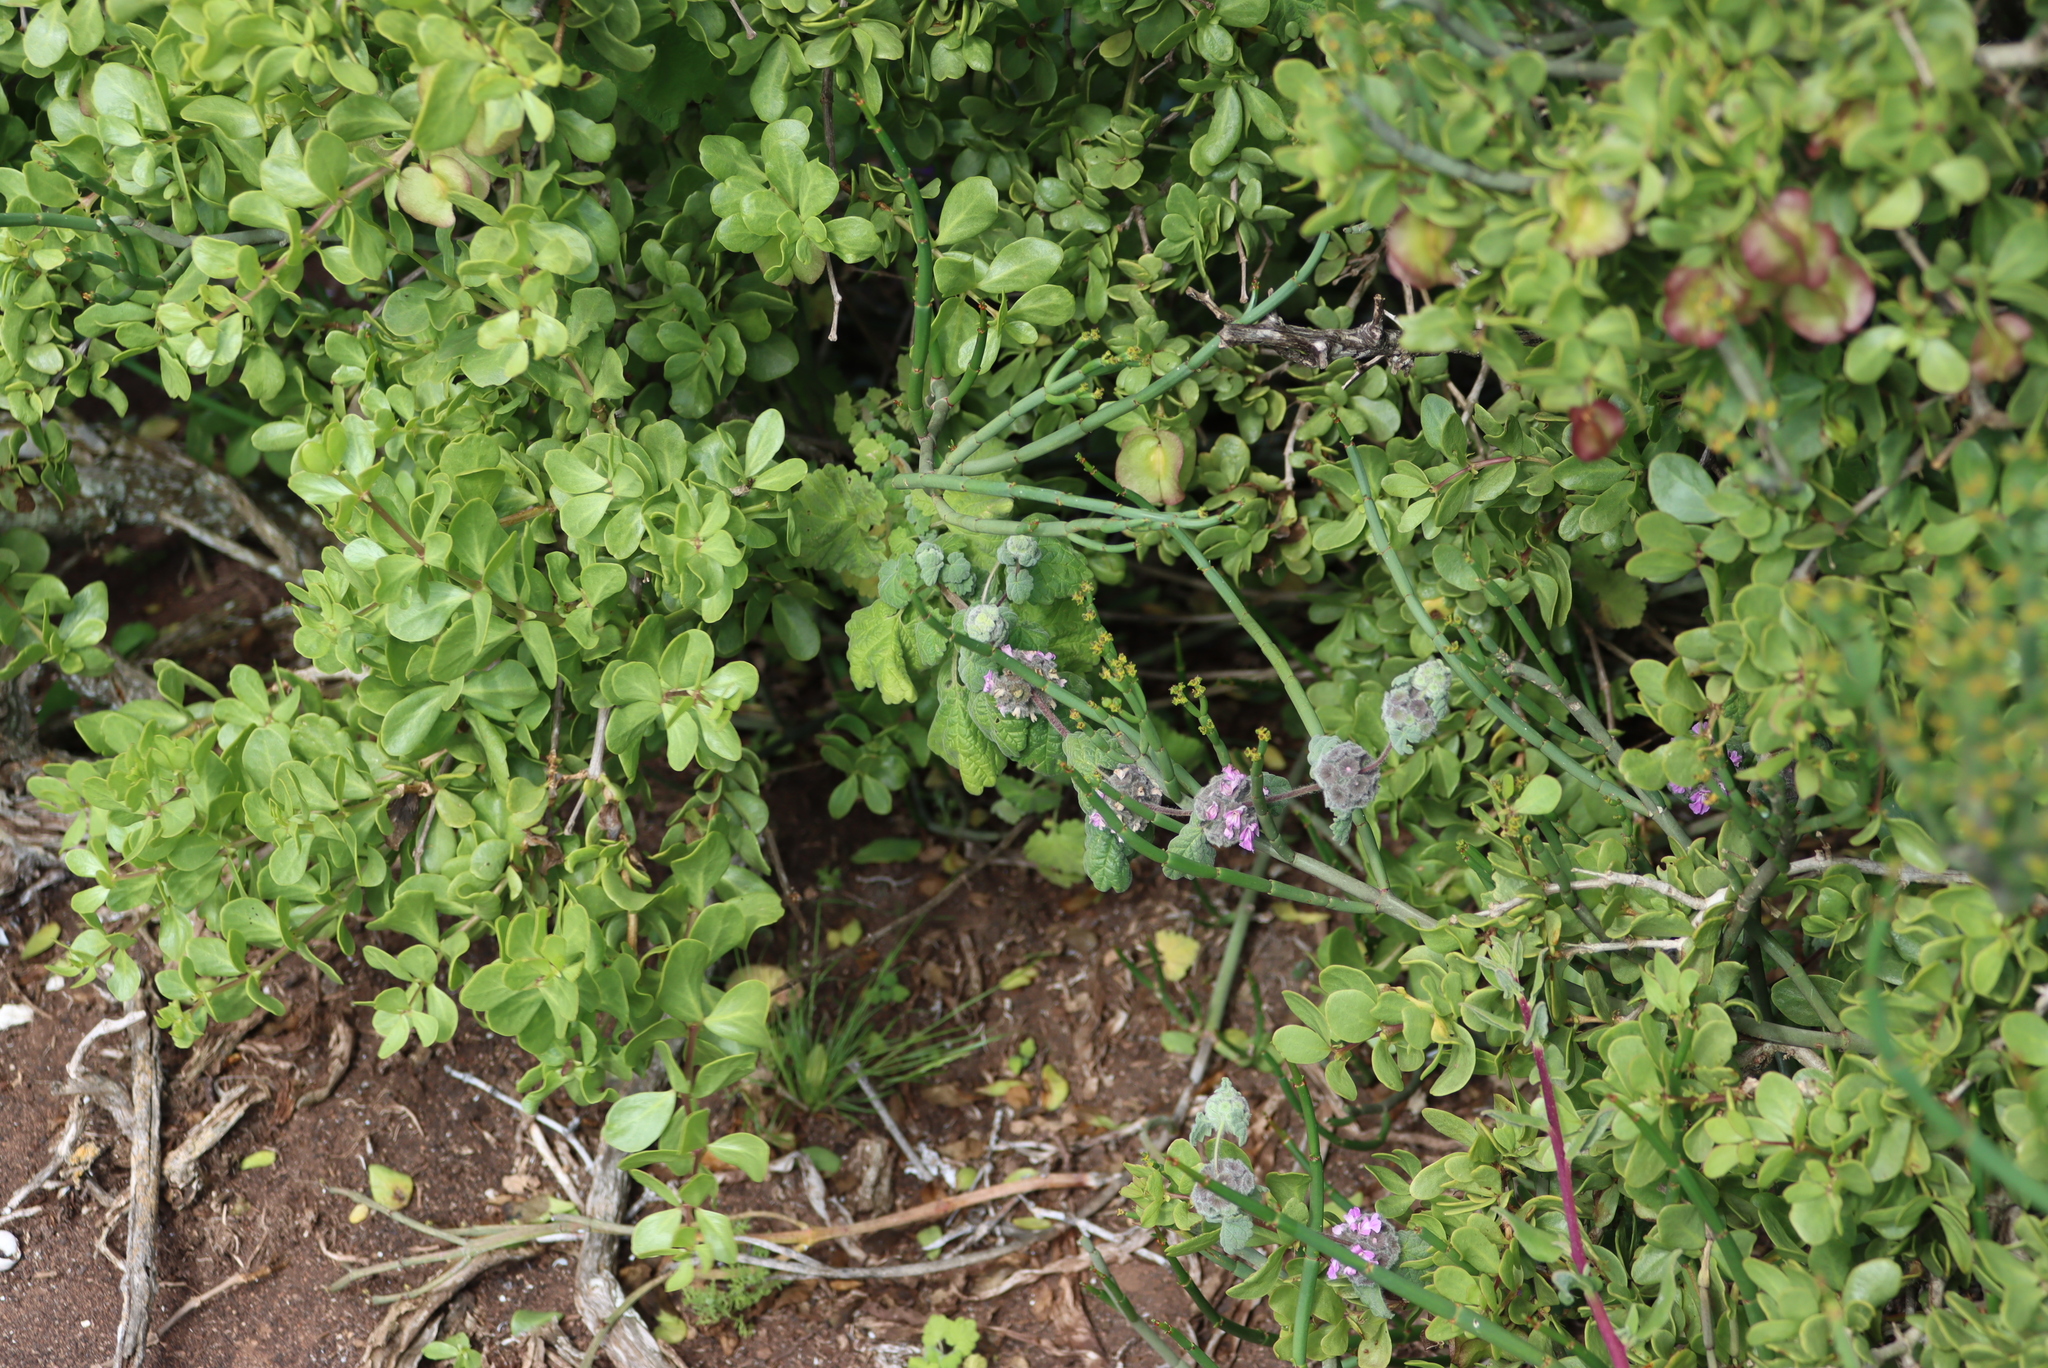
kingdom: Plantae
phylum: Tracheophyta
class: Magnoliopsida
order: Lamiales
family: Lamiaceae
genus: Pseudodictamnus
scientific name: Pseudodictamnus africanus
